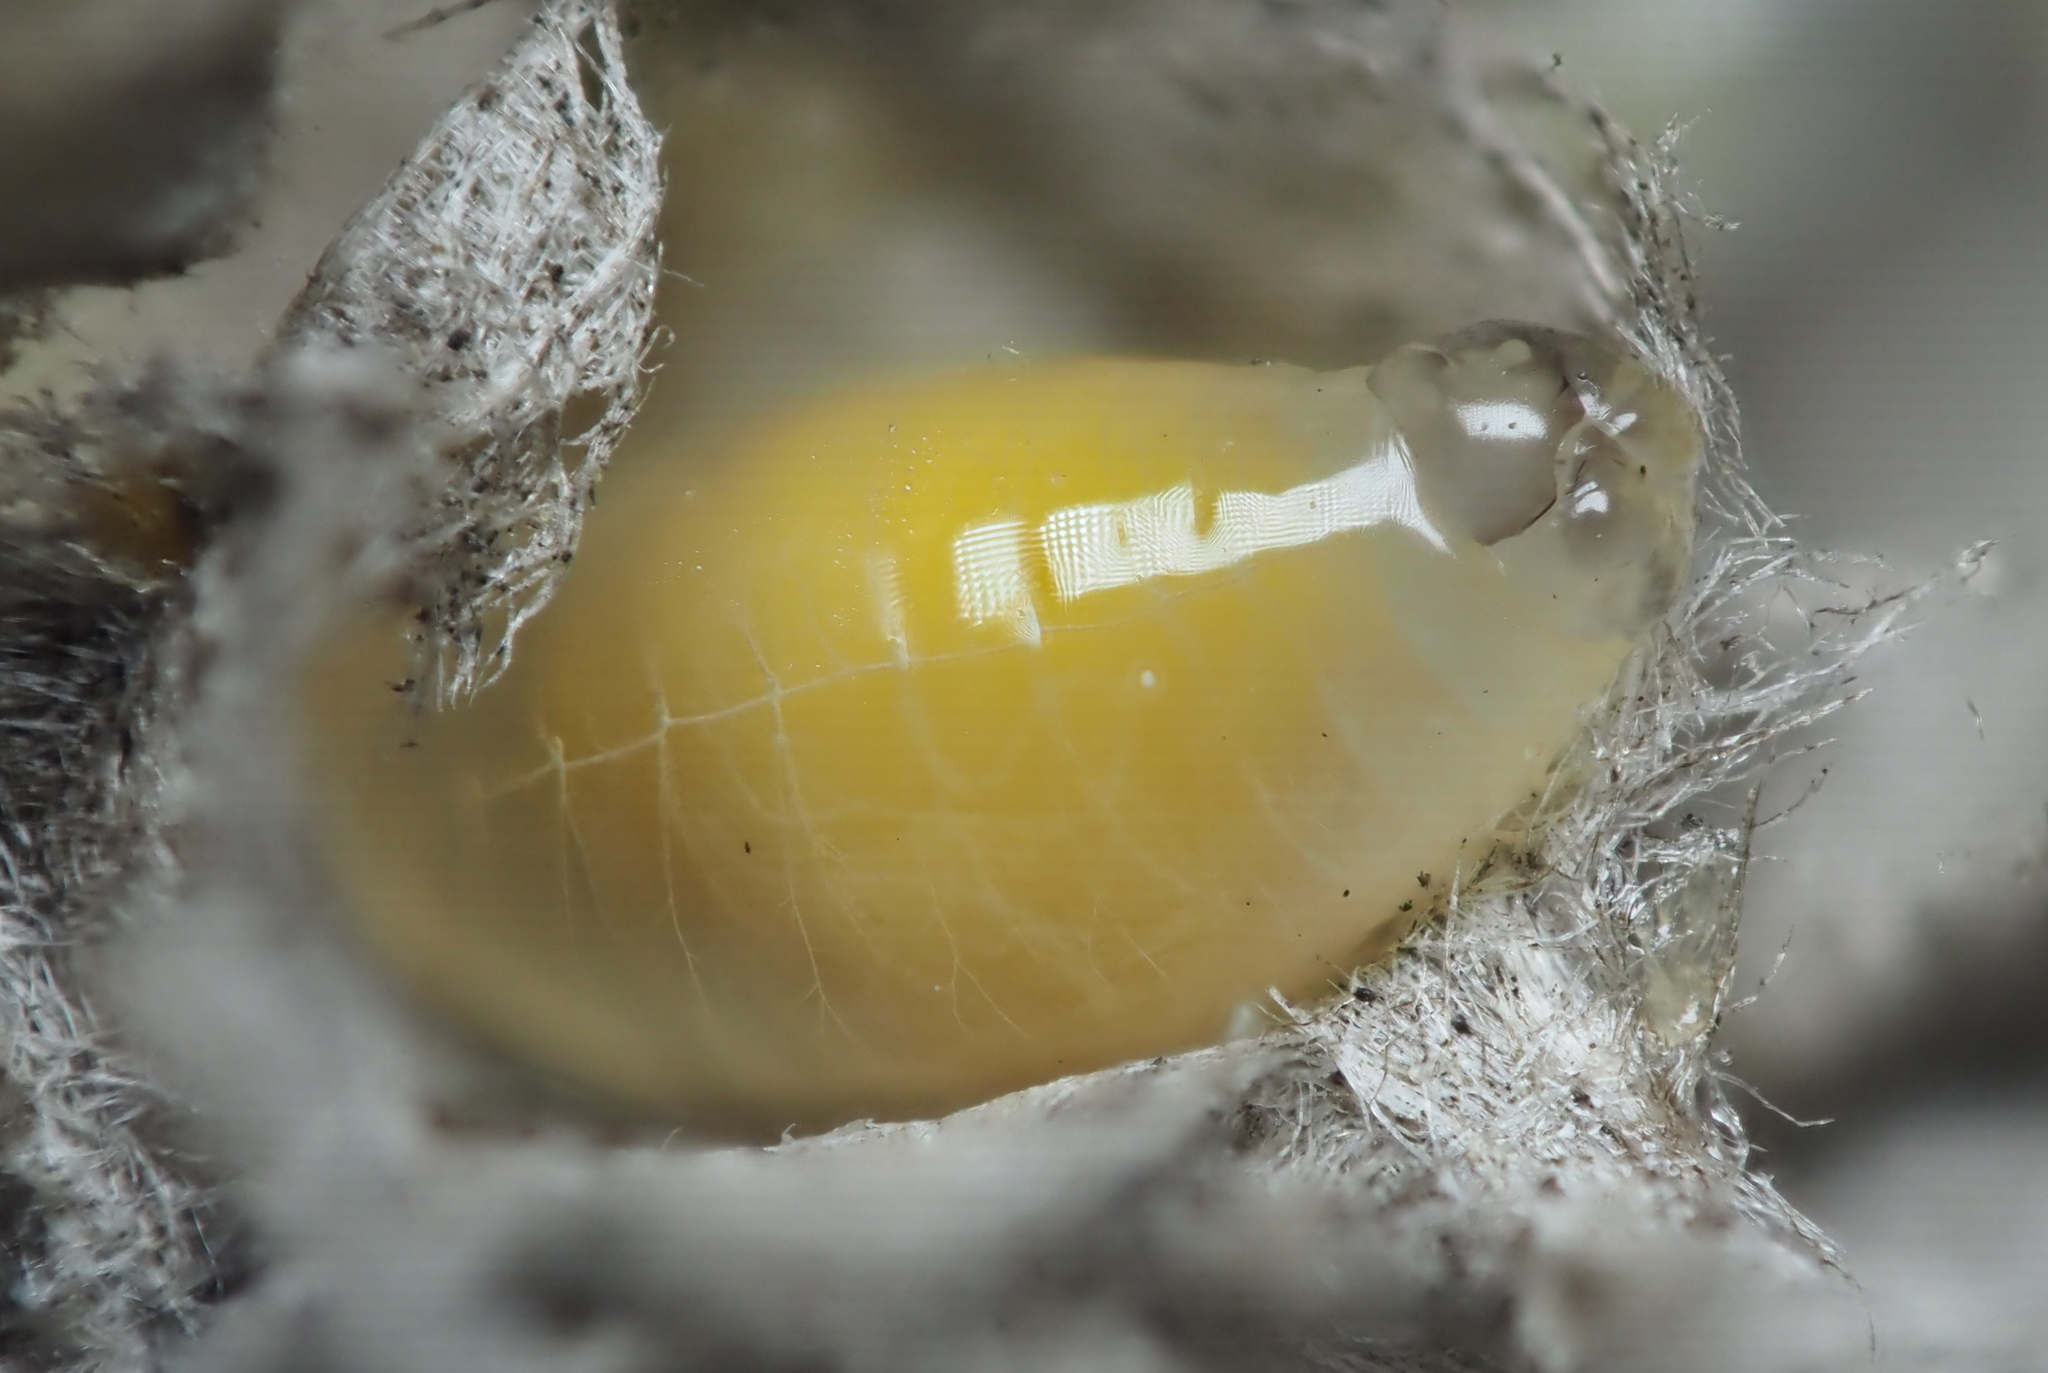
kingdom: Animalia
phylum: Arthropoda
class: Insecta
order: Hymenoptera
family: Eumenidae
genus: Polistes
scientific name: Polistes metricus
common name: Metric paper wasp
